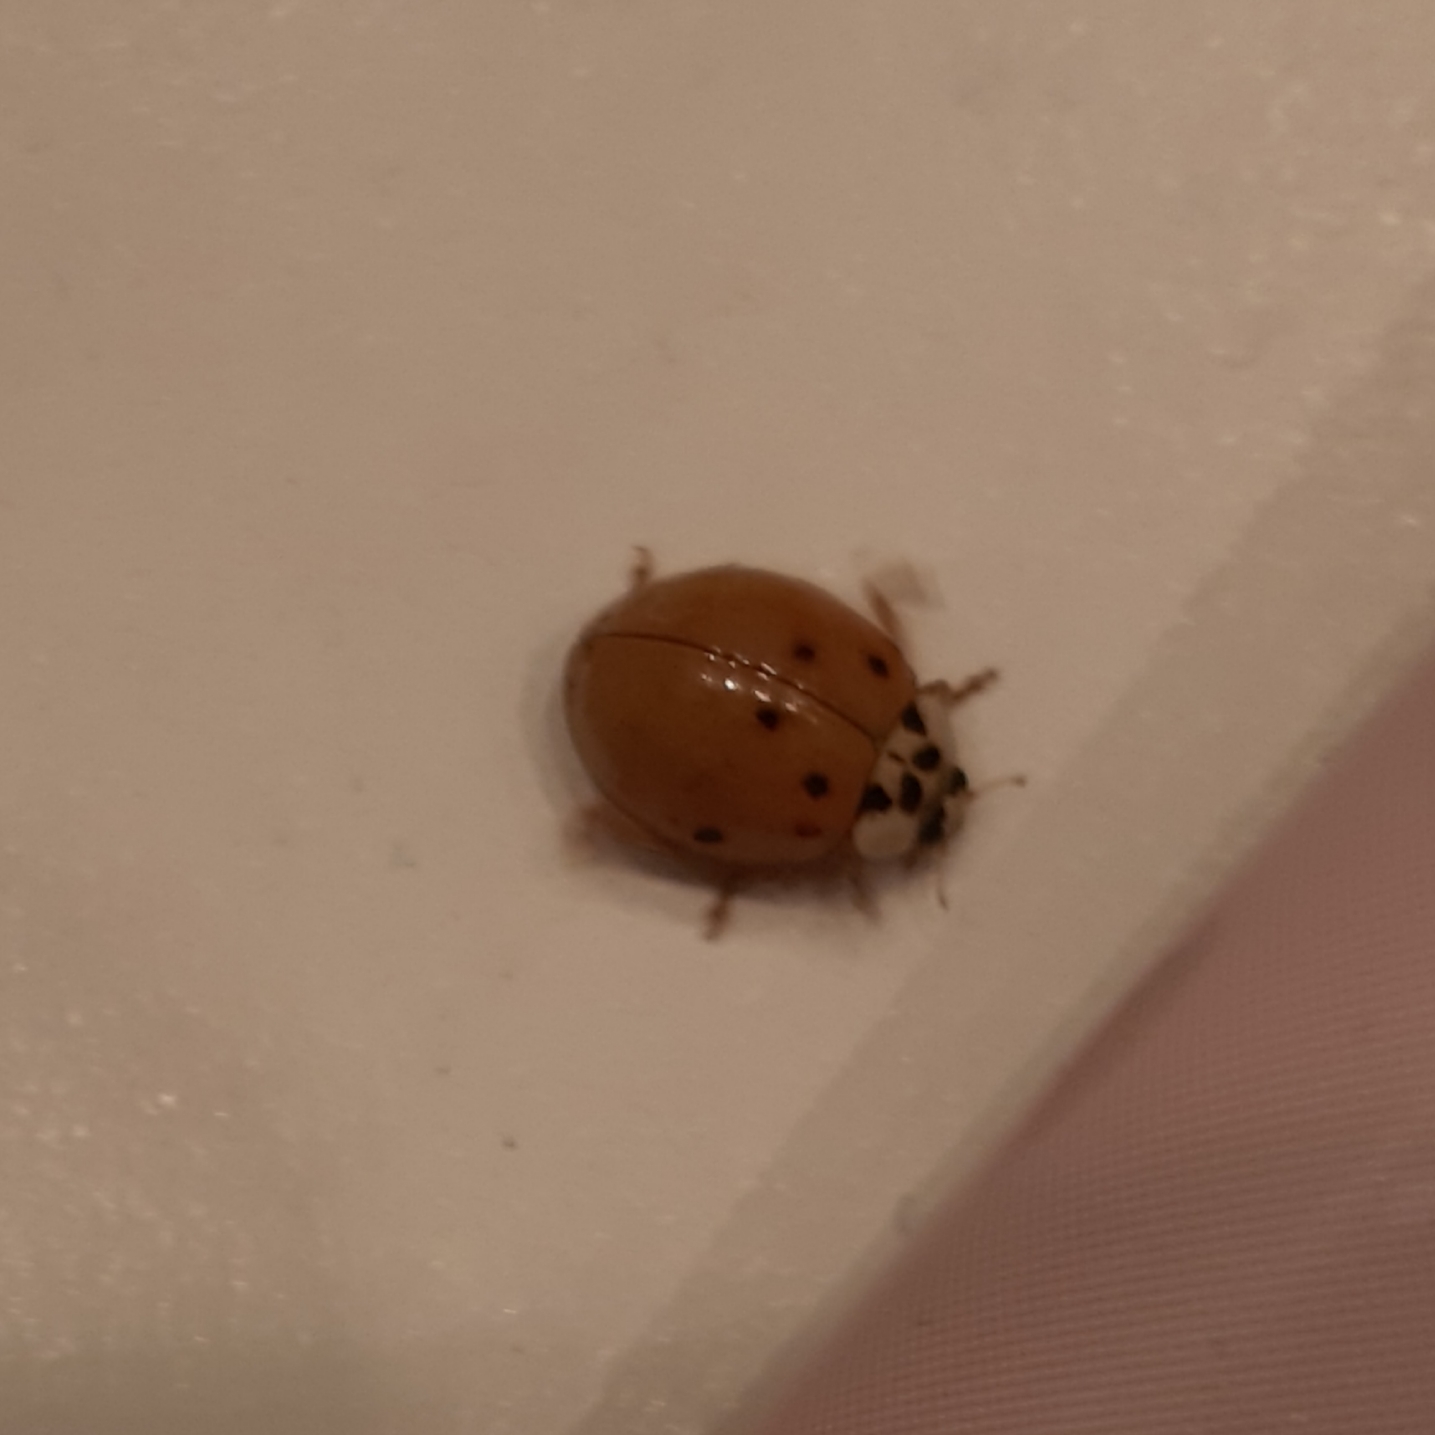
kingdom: Animalia
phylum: Arthropoda
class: Insecta
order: Coleoptera
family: Coccinellidae
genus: Harmonia
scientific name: Harmonia axyridis
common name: Harlequin ladybird
